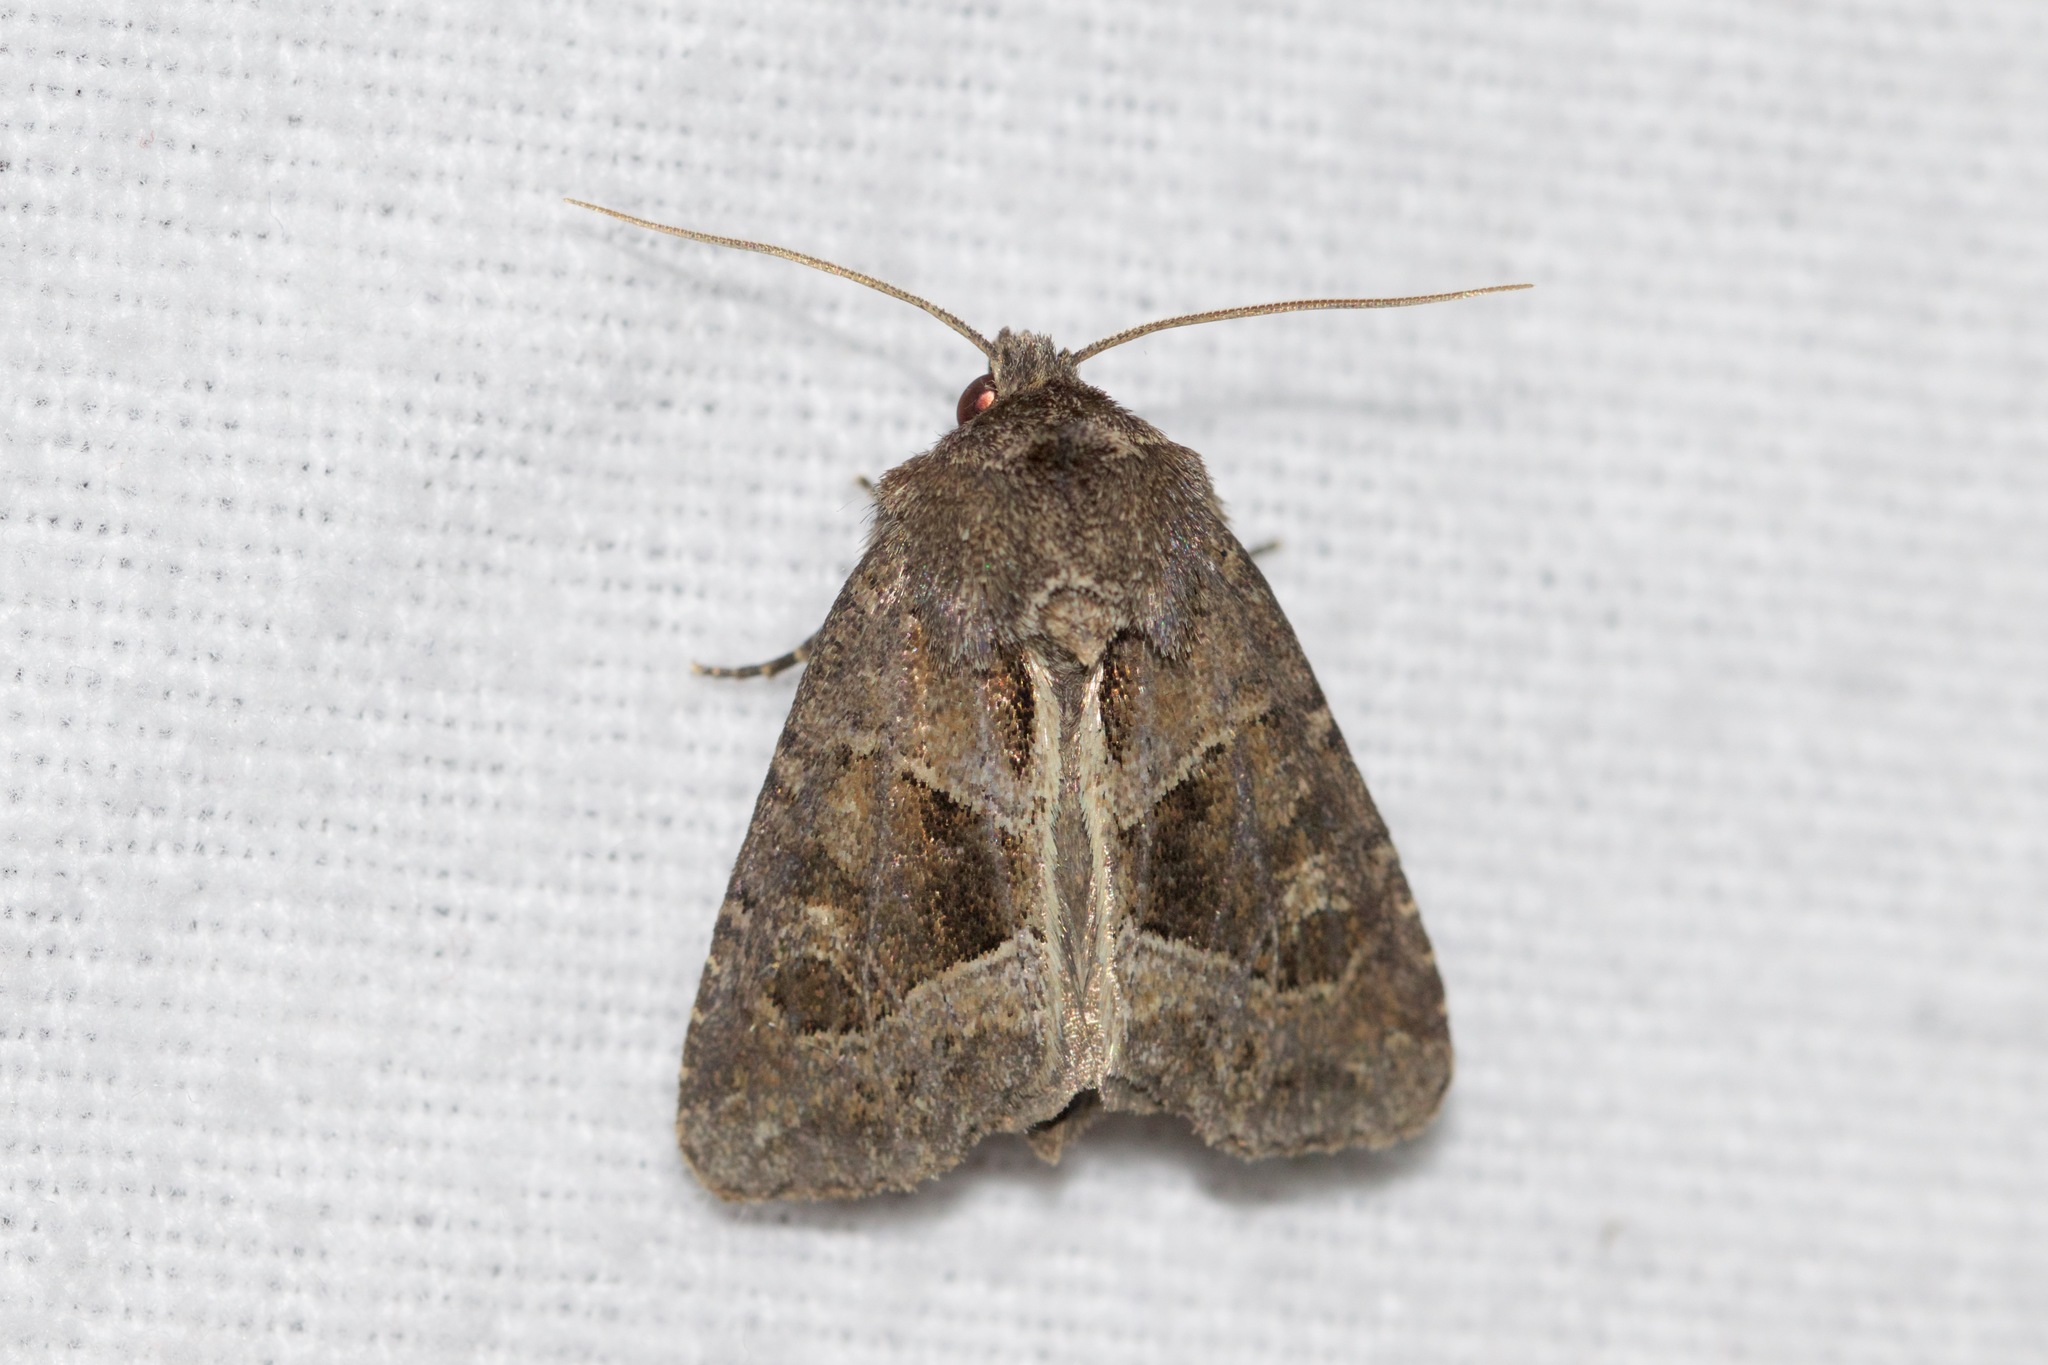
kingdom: Animalia
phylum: Arthropoda
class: Insecta
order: Lepidoptera
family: Noctuidae
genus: Oligia
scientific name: Oligia obtusa
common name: Obtuse sedge borer
